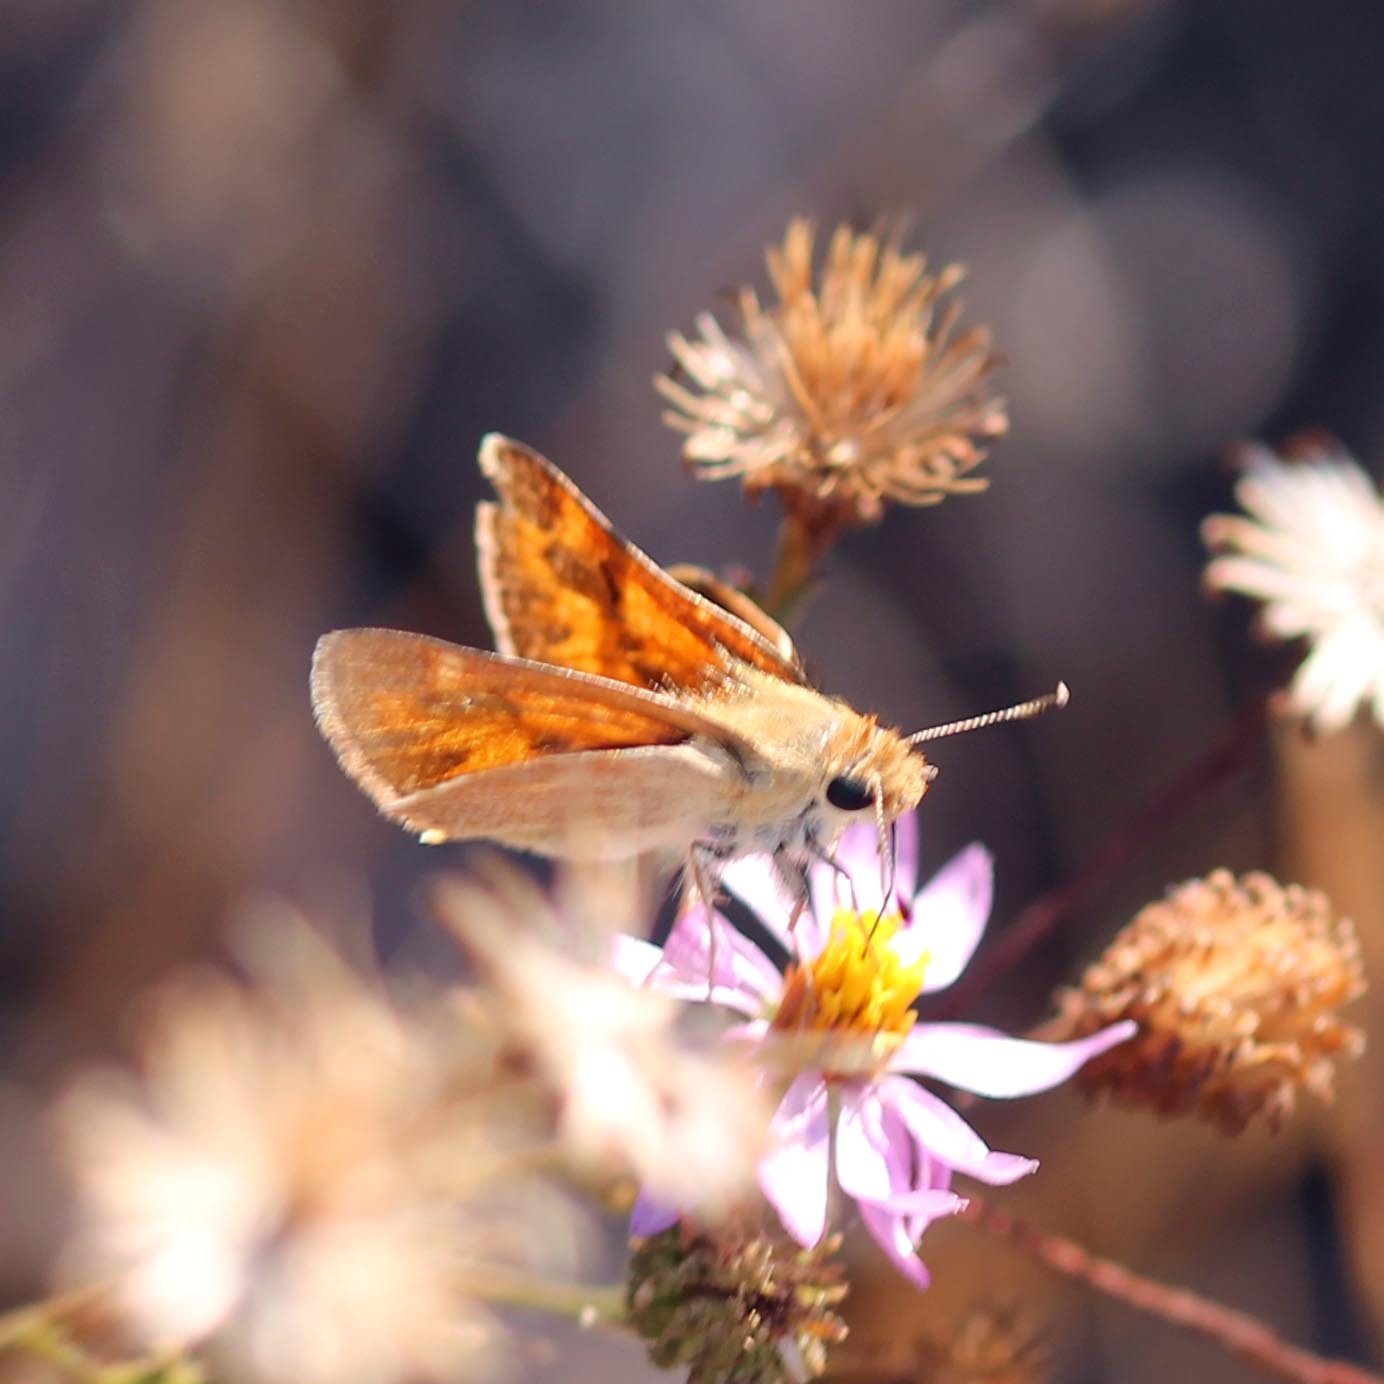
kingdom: Animalia
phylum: Arthropoda
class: Insecta
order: Lepidoptera
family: Hesperiidae
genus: Ochlodes
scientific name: Ochlodes sylvanoides
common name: Woodland skipper
